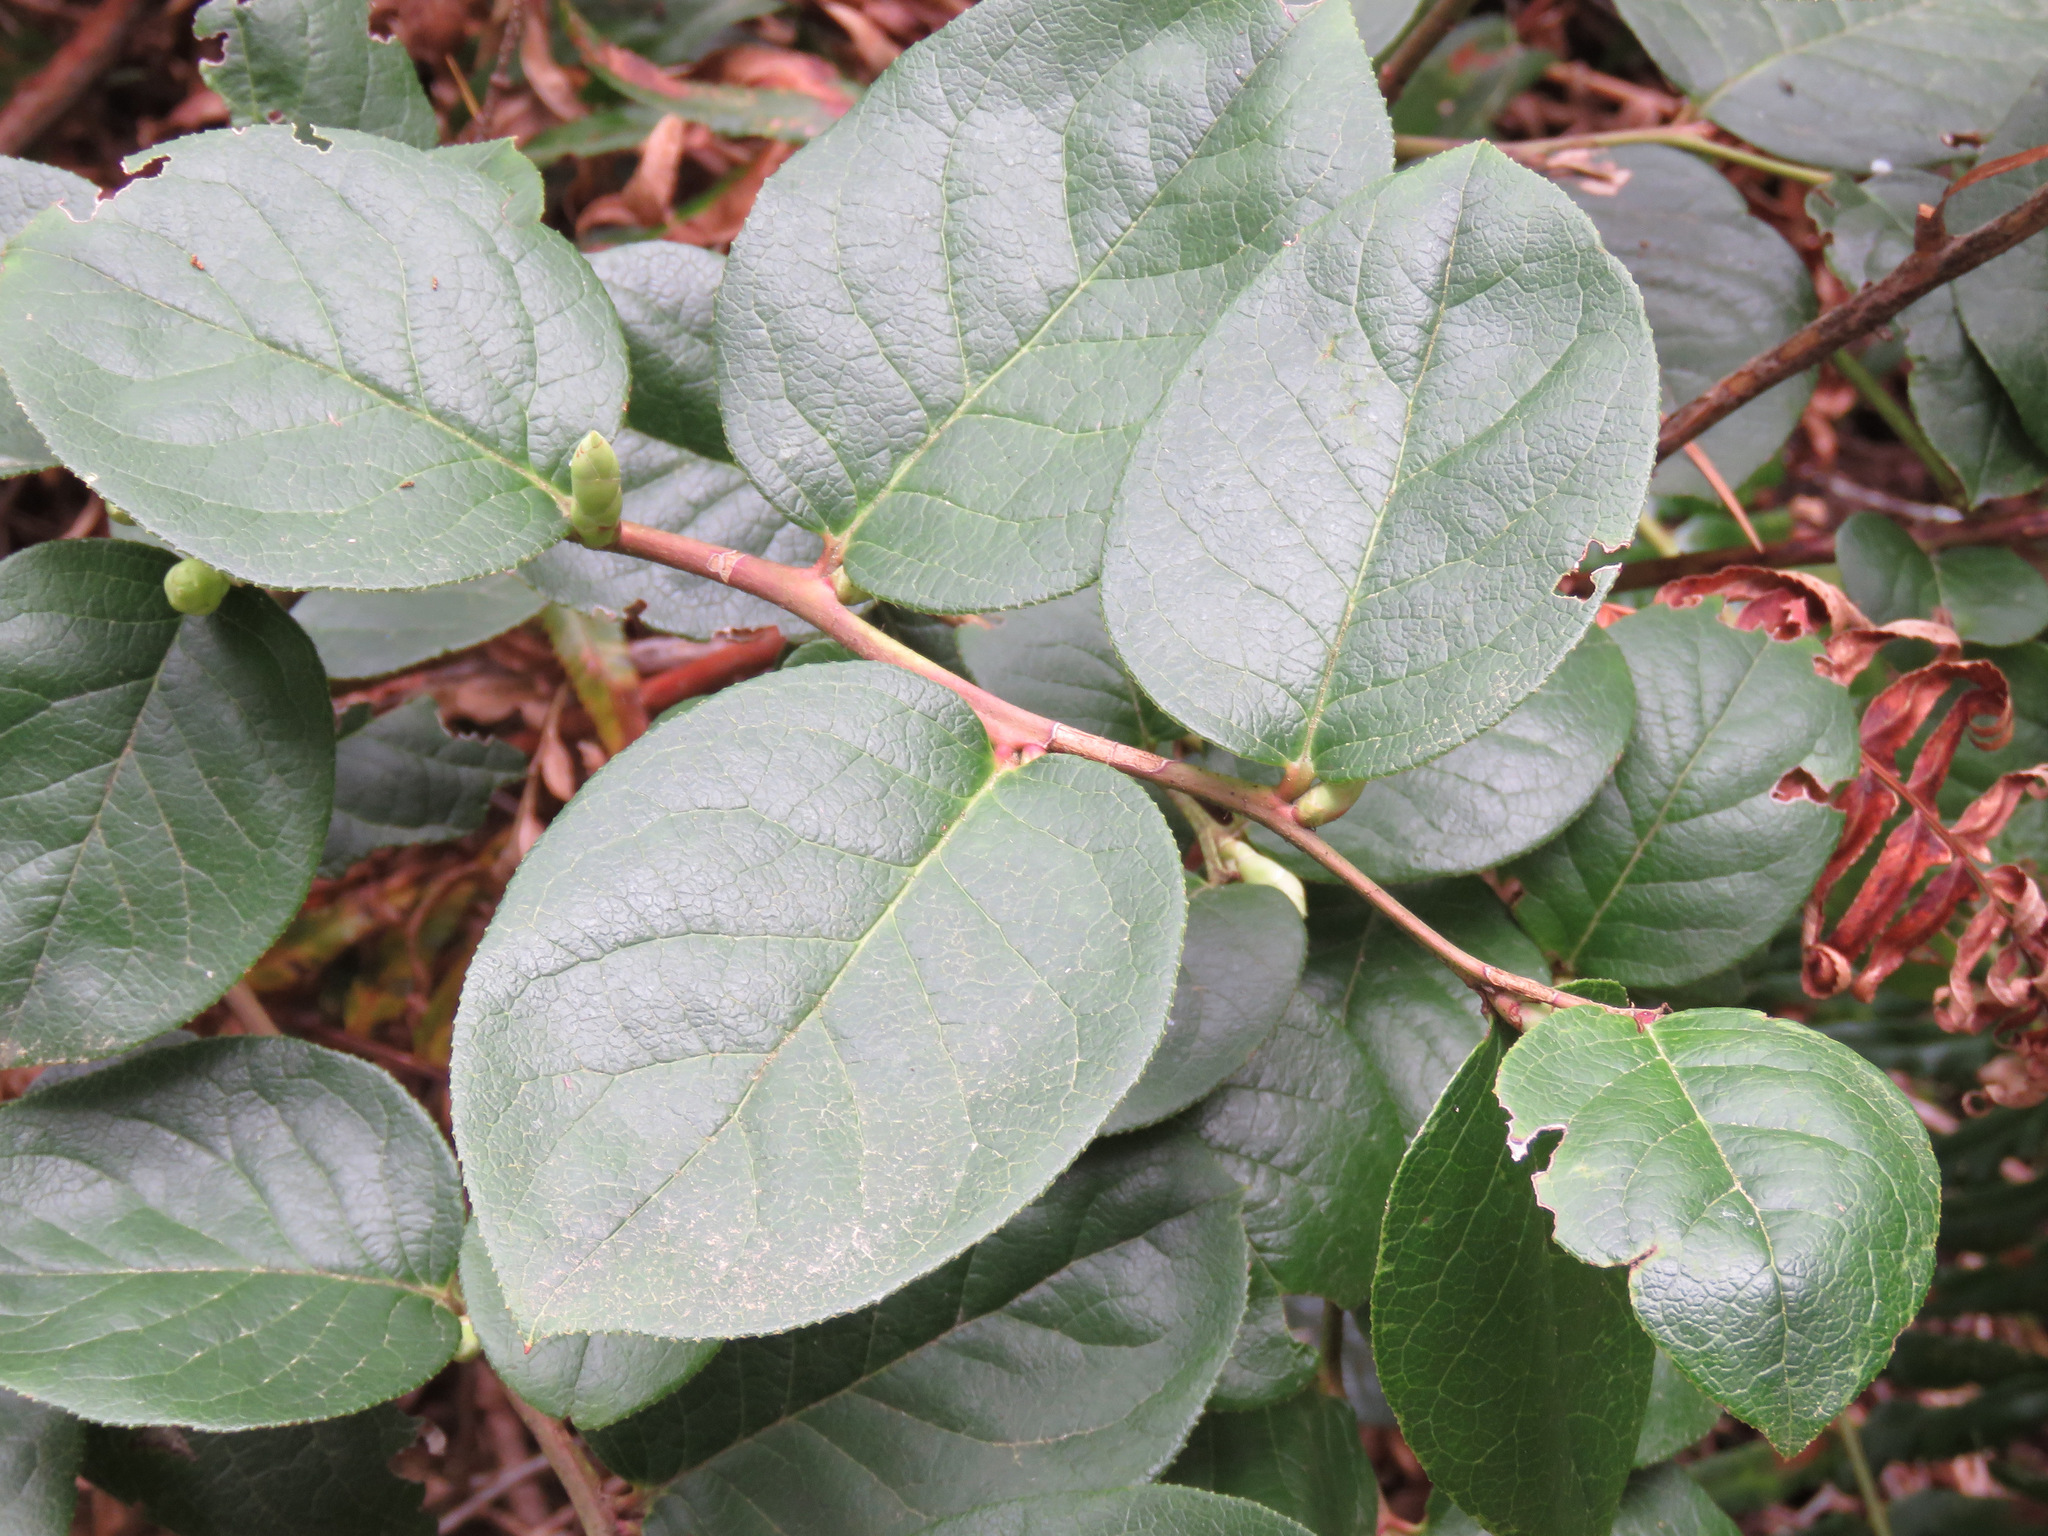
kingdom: Plantae
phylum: Tracheophyta
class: Magnoliopsida
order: Ericales
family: Ericaceae
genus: Gaultheria
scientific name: Gaultheria shallon
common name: Shallon
